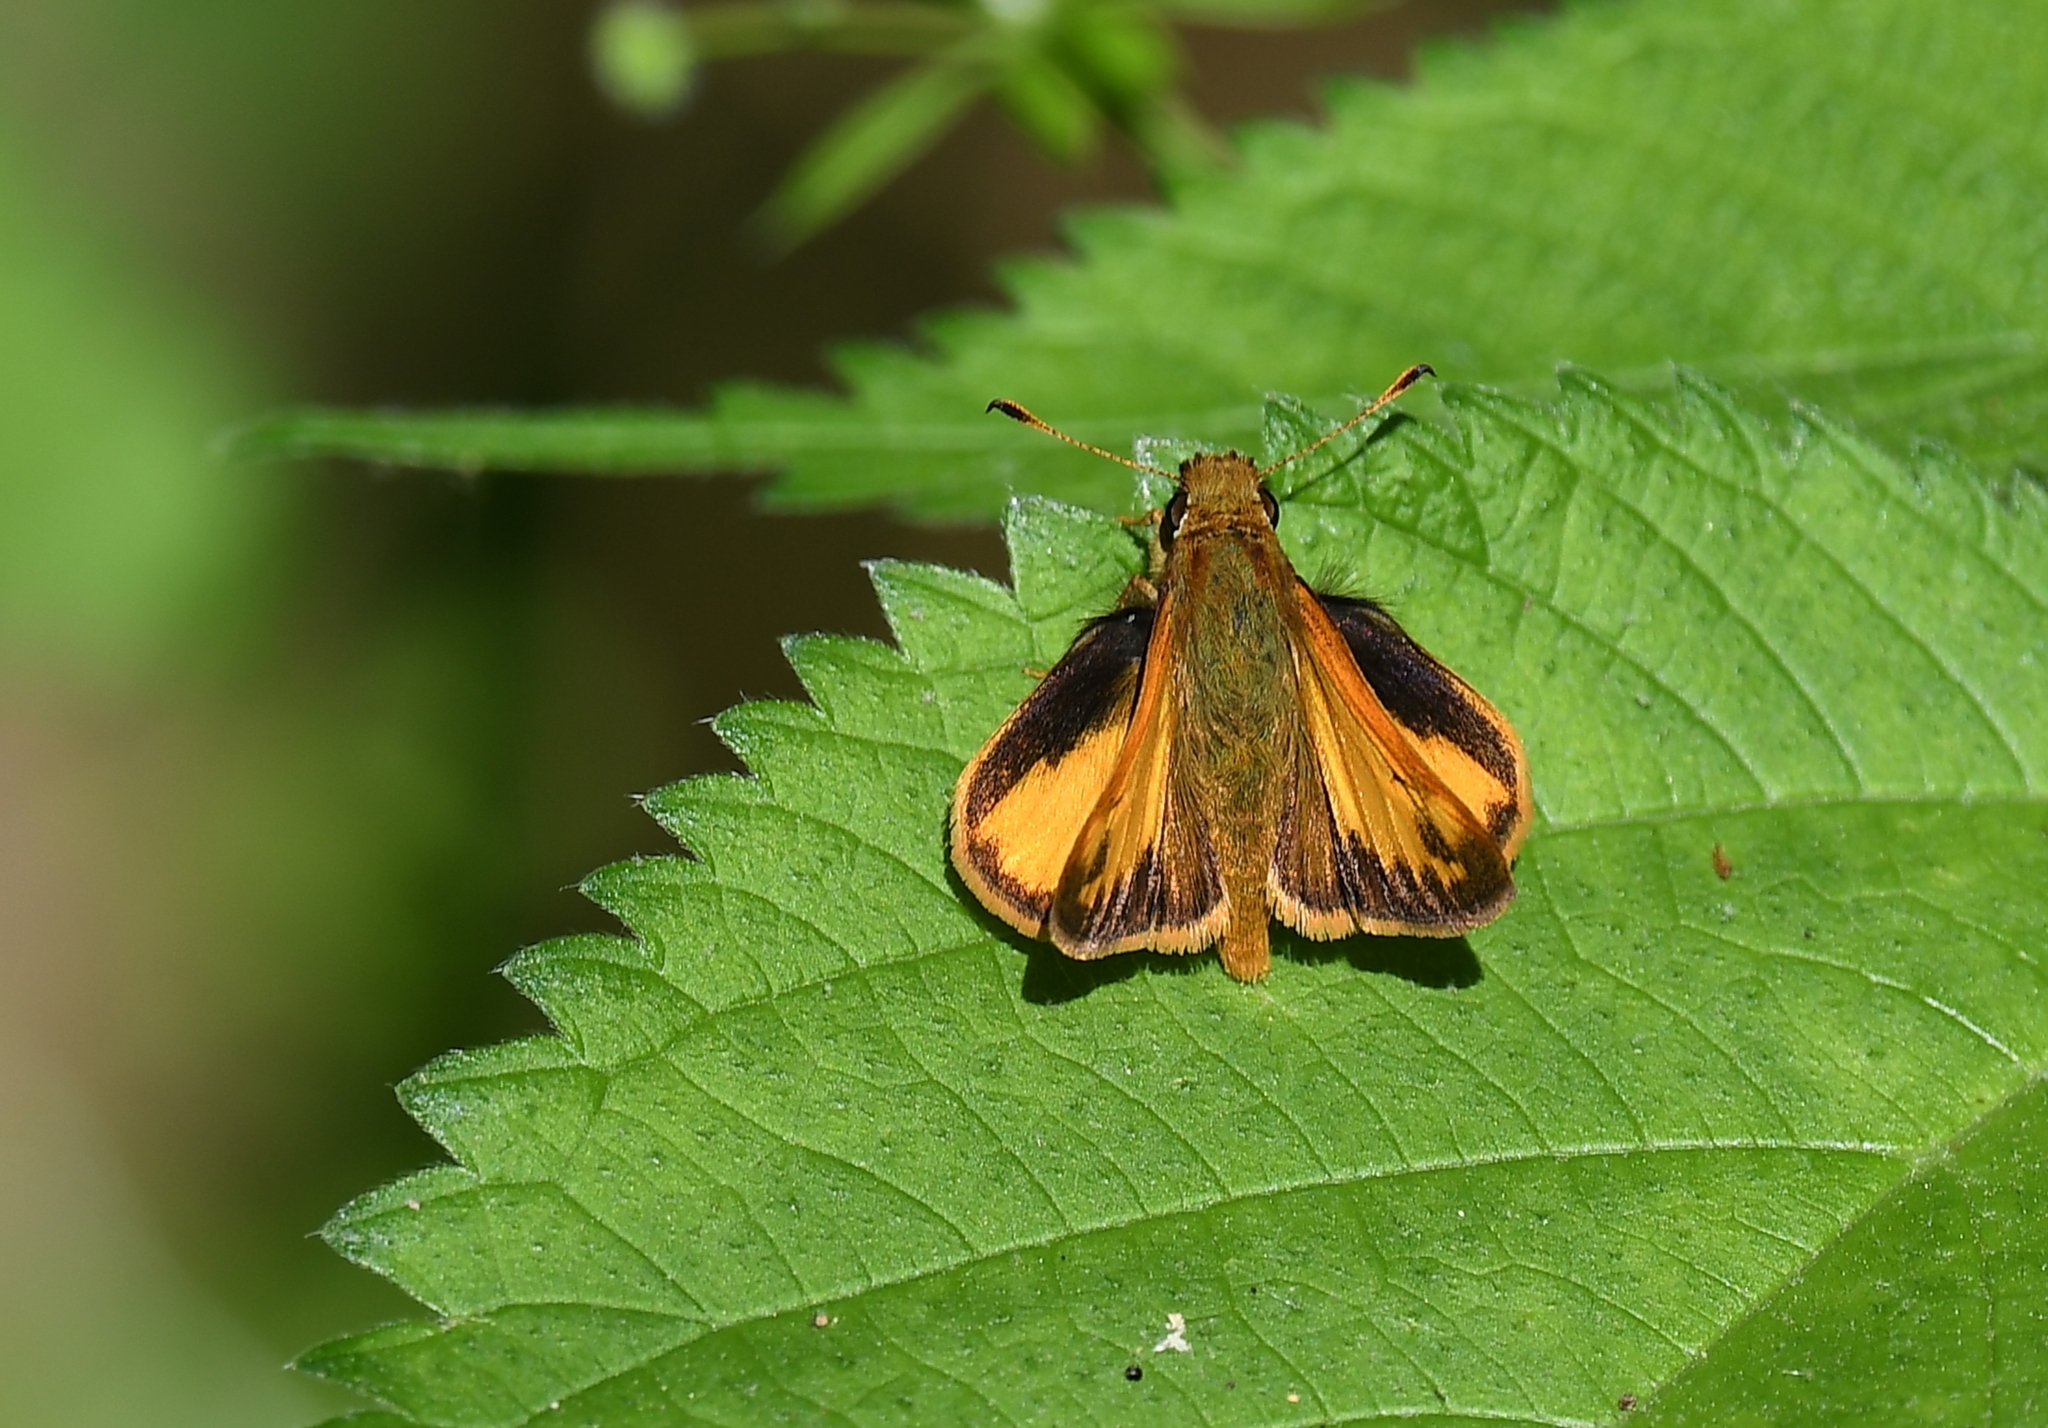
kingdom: Animalia
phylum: Arthropoda
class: Insecta
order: Lepidoptera
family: Hesperiidae
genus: Lon
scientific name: Lon zabulon
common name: Zabulon skipper
